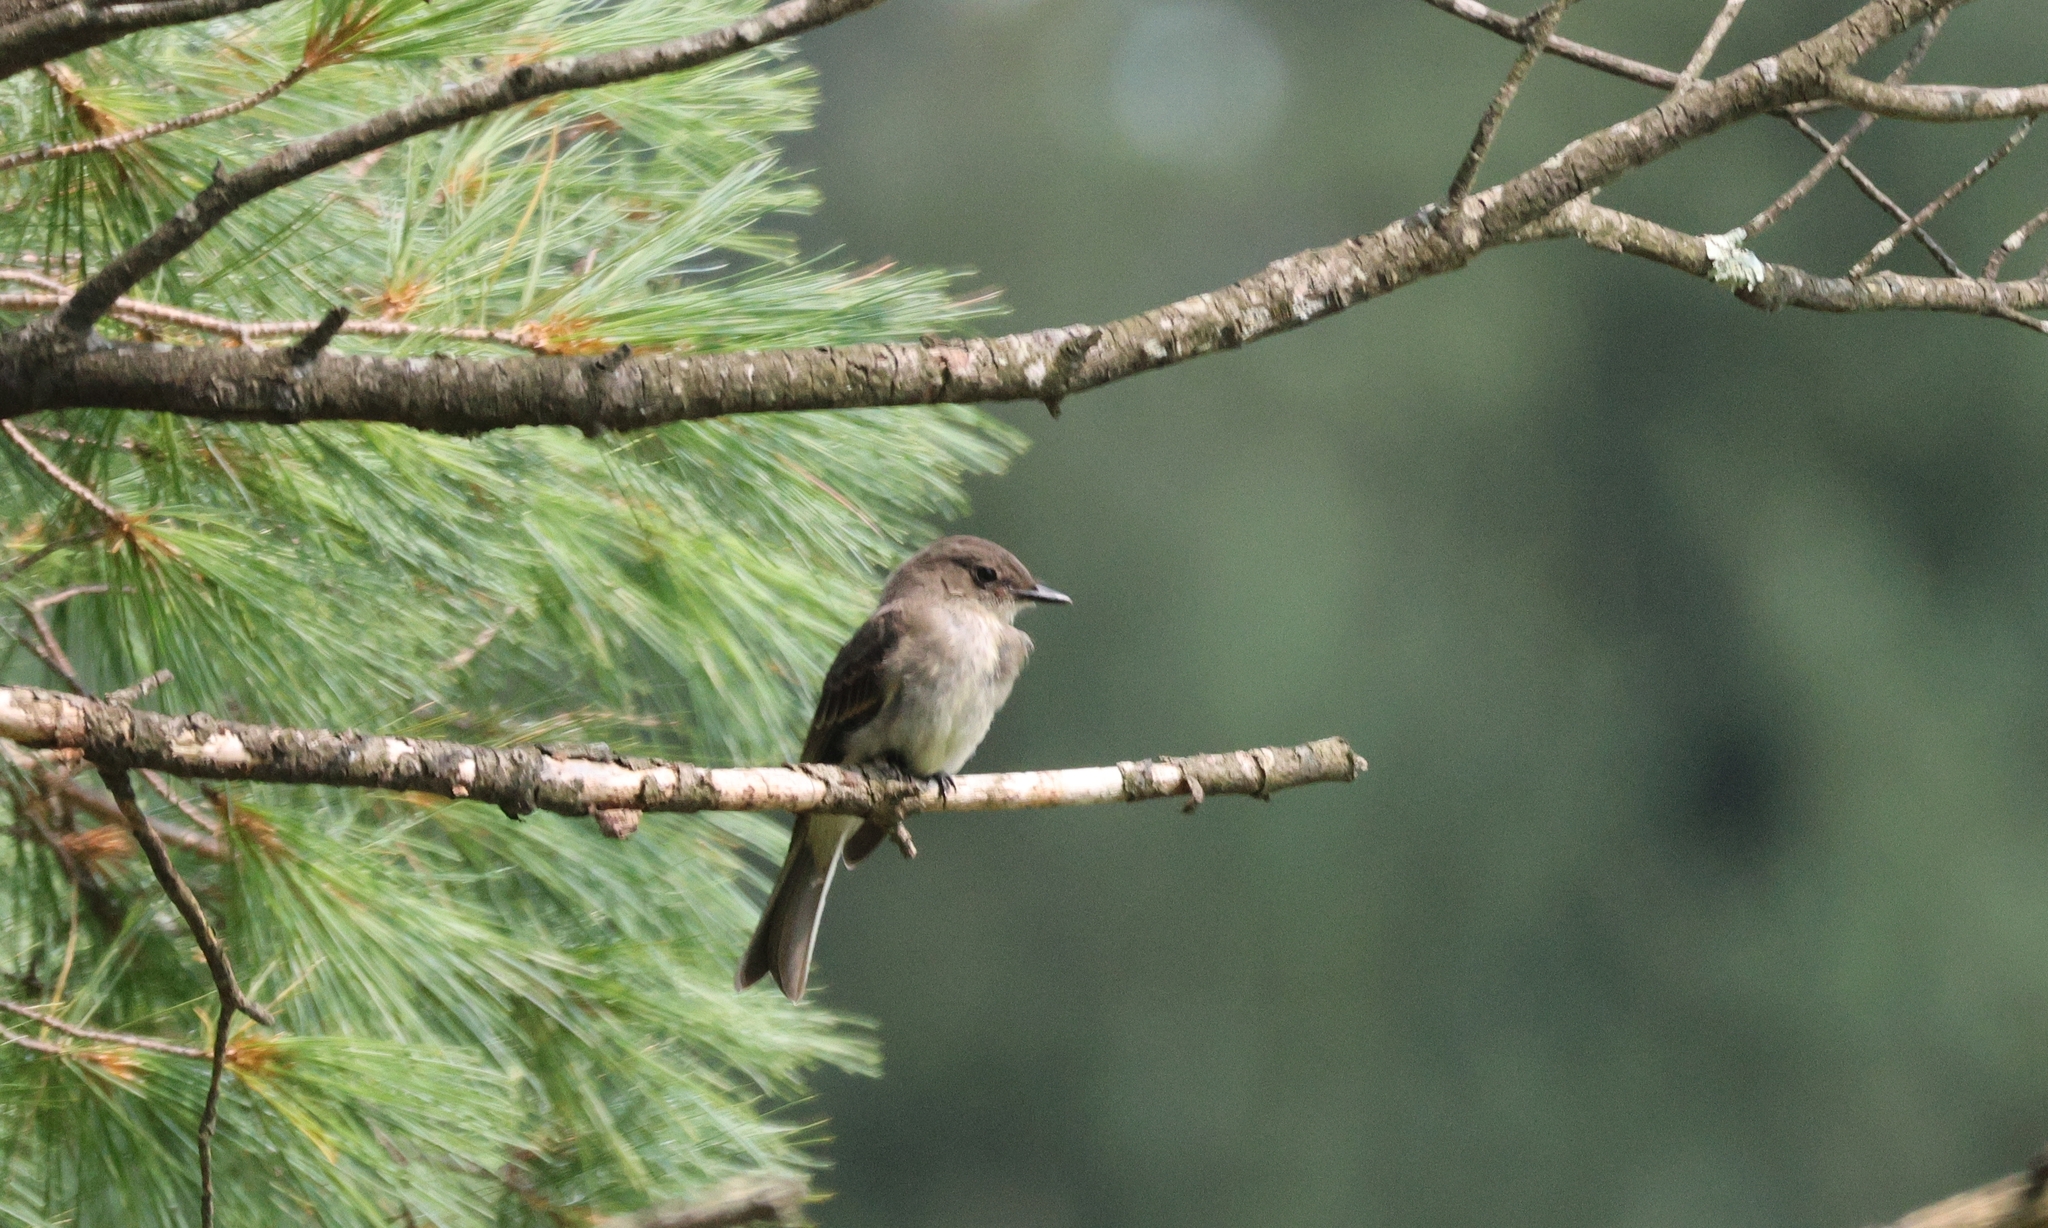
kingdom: Animalia
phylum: Chordata
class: Aves
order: Passeriformes
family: Tyrannidae
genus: Sayornis
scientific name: Sayornis phoebe
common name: Eastern phoebe
